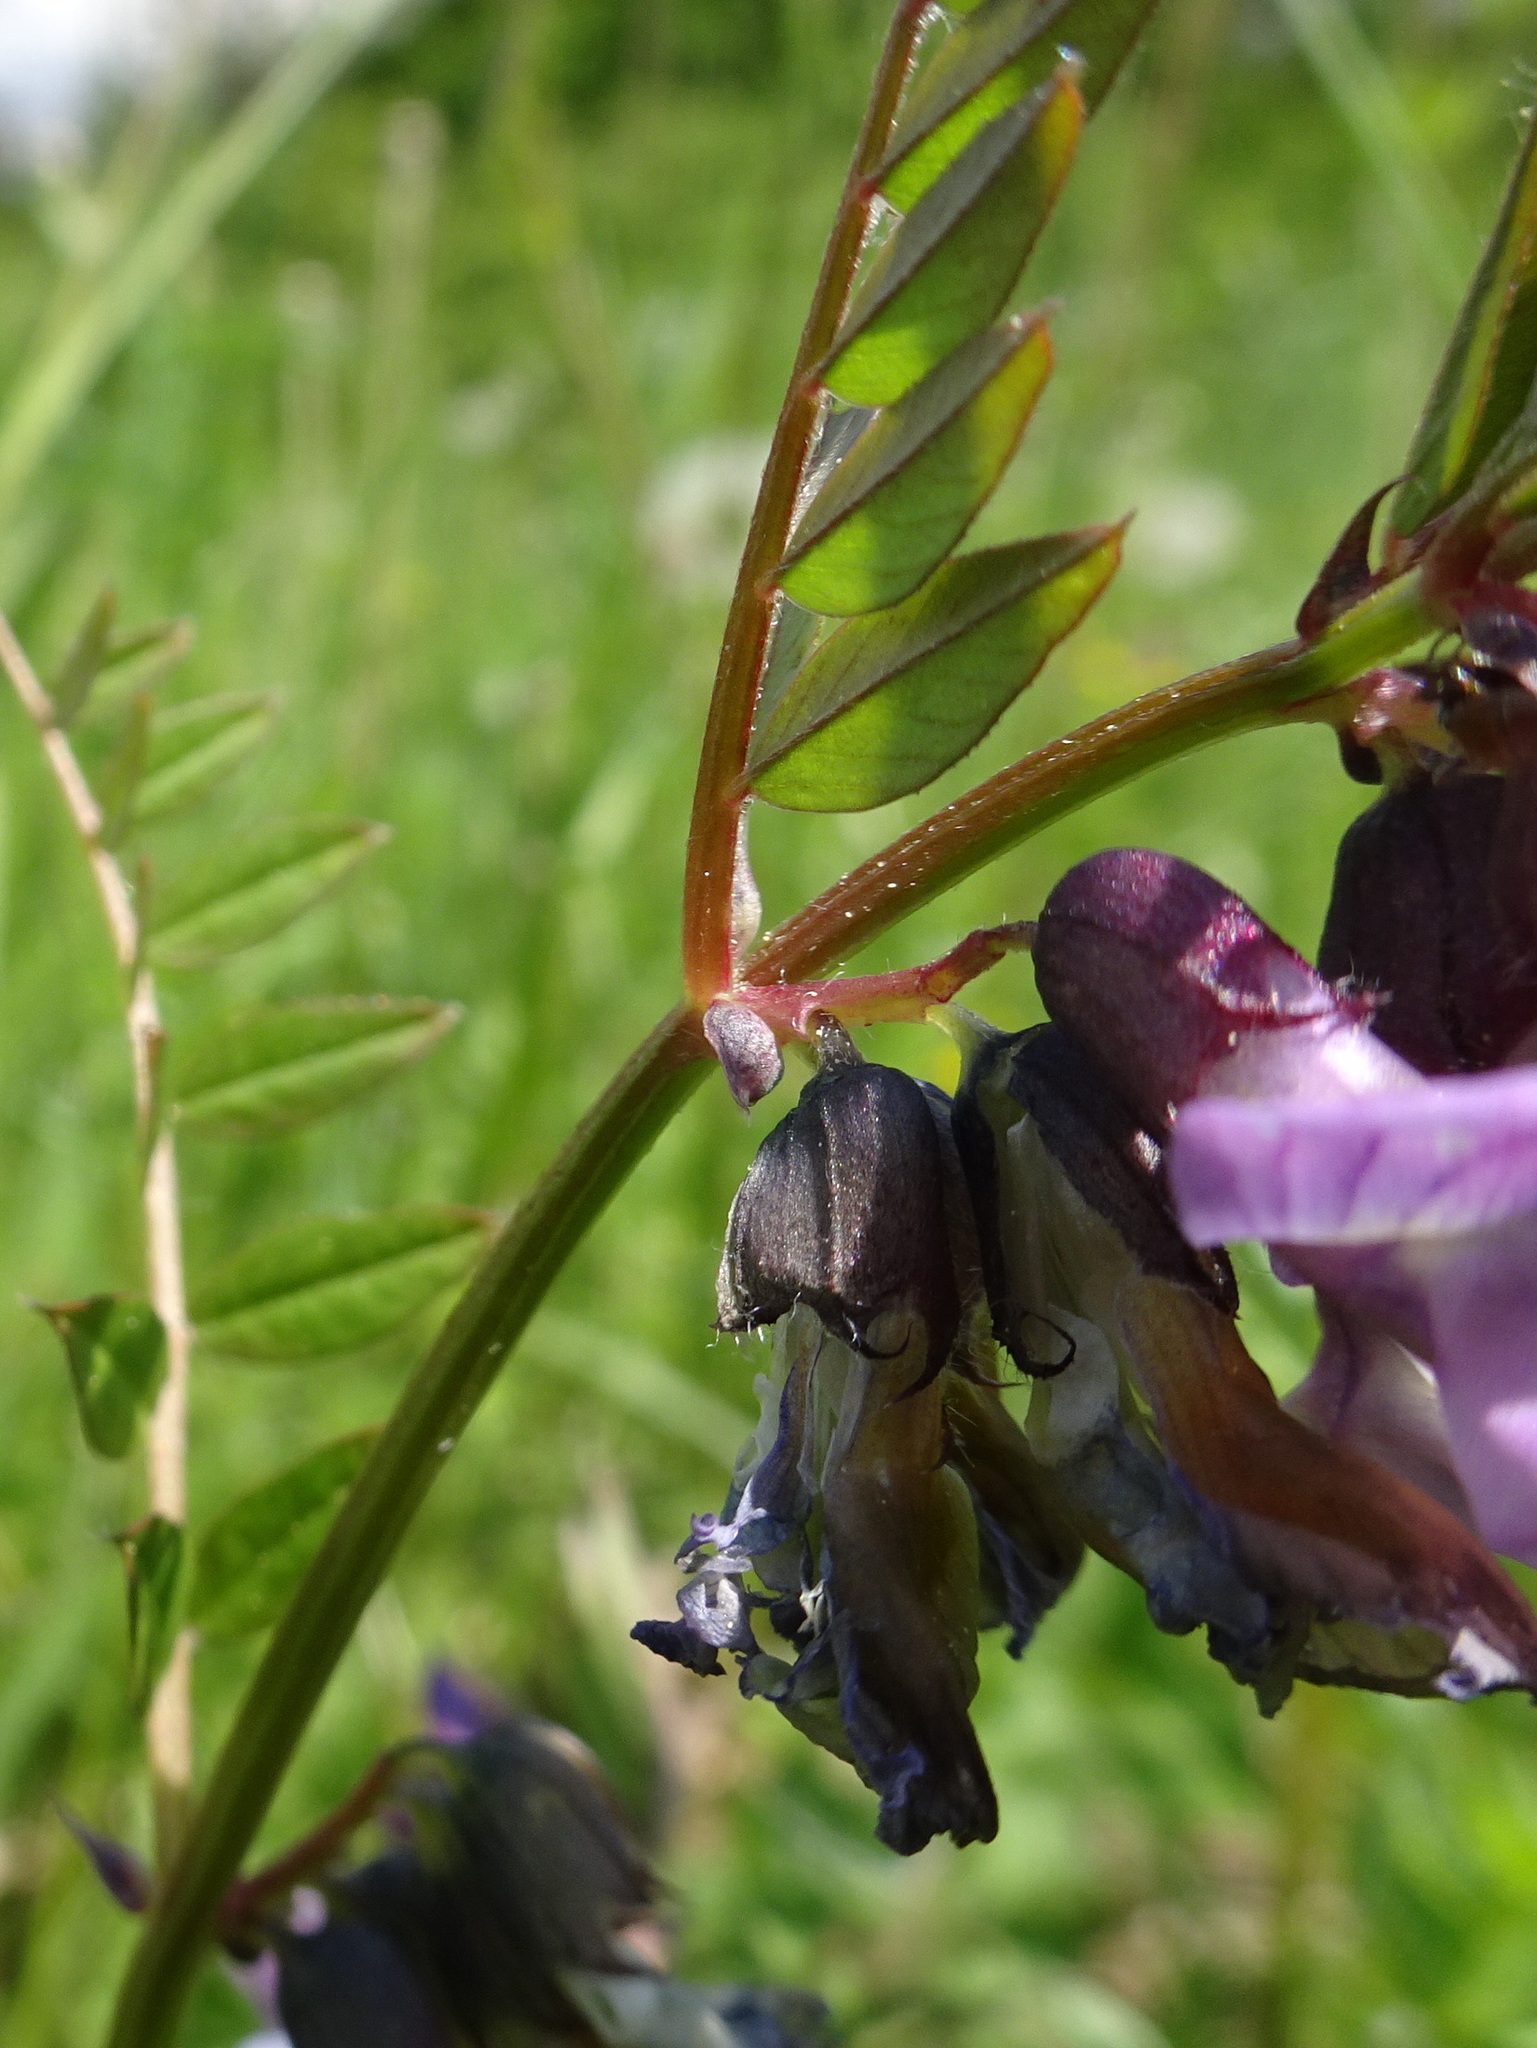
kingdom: Plantae
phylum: Tracheophyta
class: Magnoliopsida
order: Fabales
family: Fabaceae
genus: Vicia
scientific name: Vicia sepium
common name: Bush vetch
